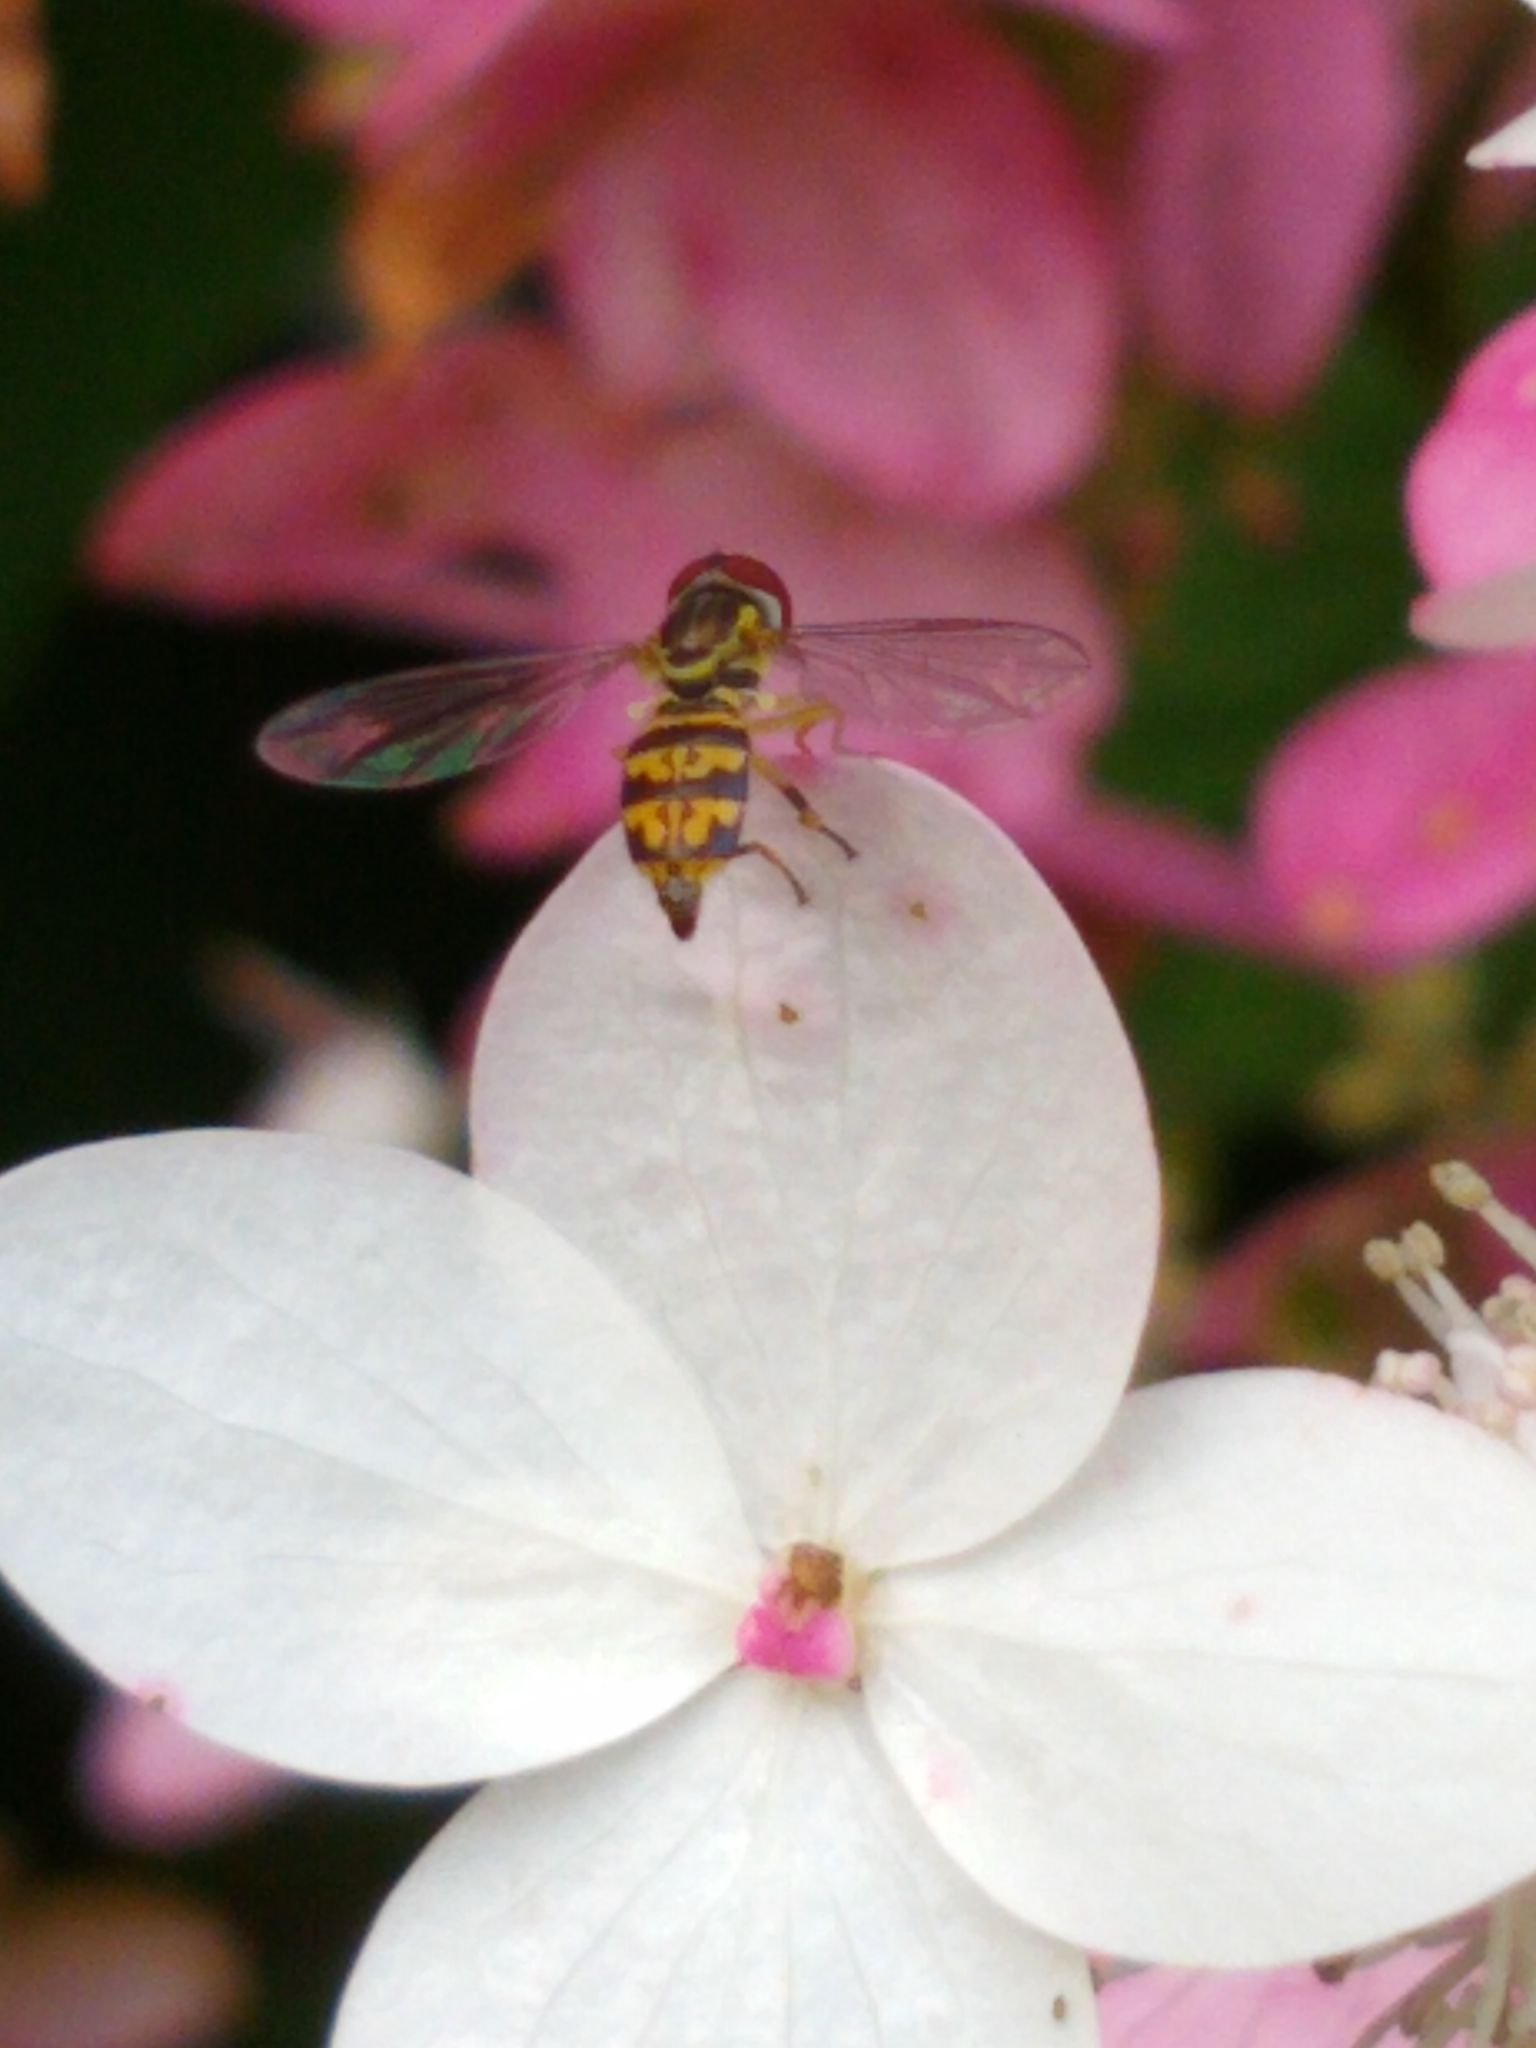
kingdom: Animalia
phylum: Arthropoda
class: Insecta
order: Diptera
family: Syrphidae
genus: Toxomerus
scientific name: Toxomerus geminatus
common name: Eastern calligrapher
